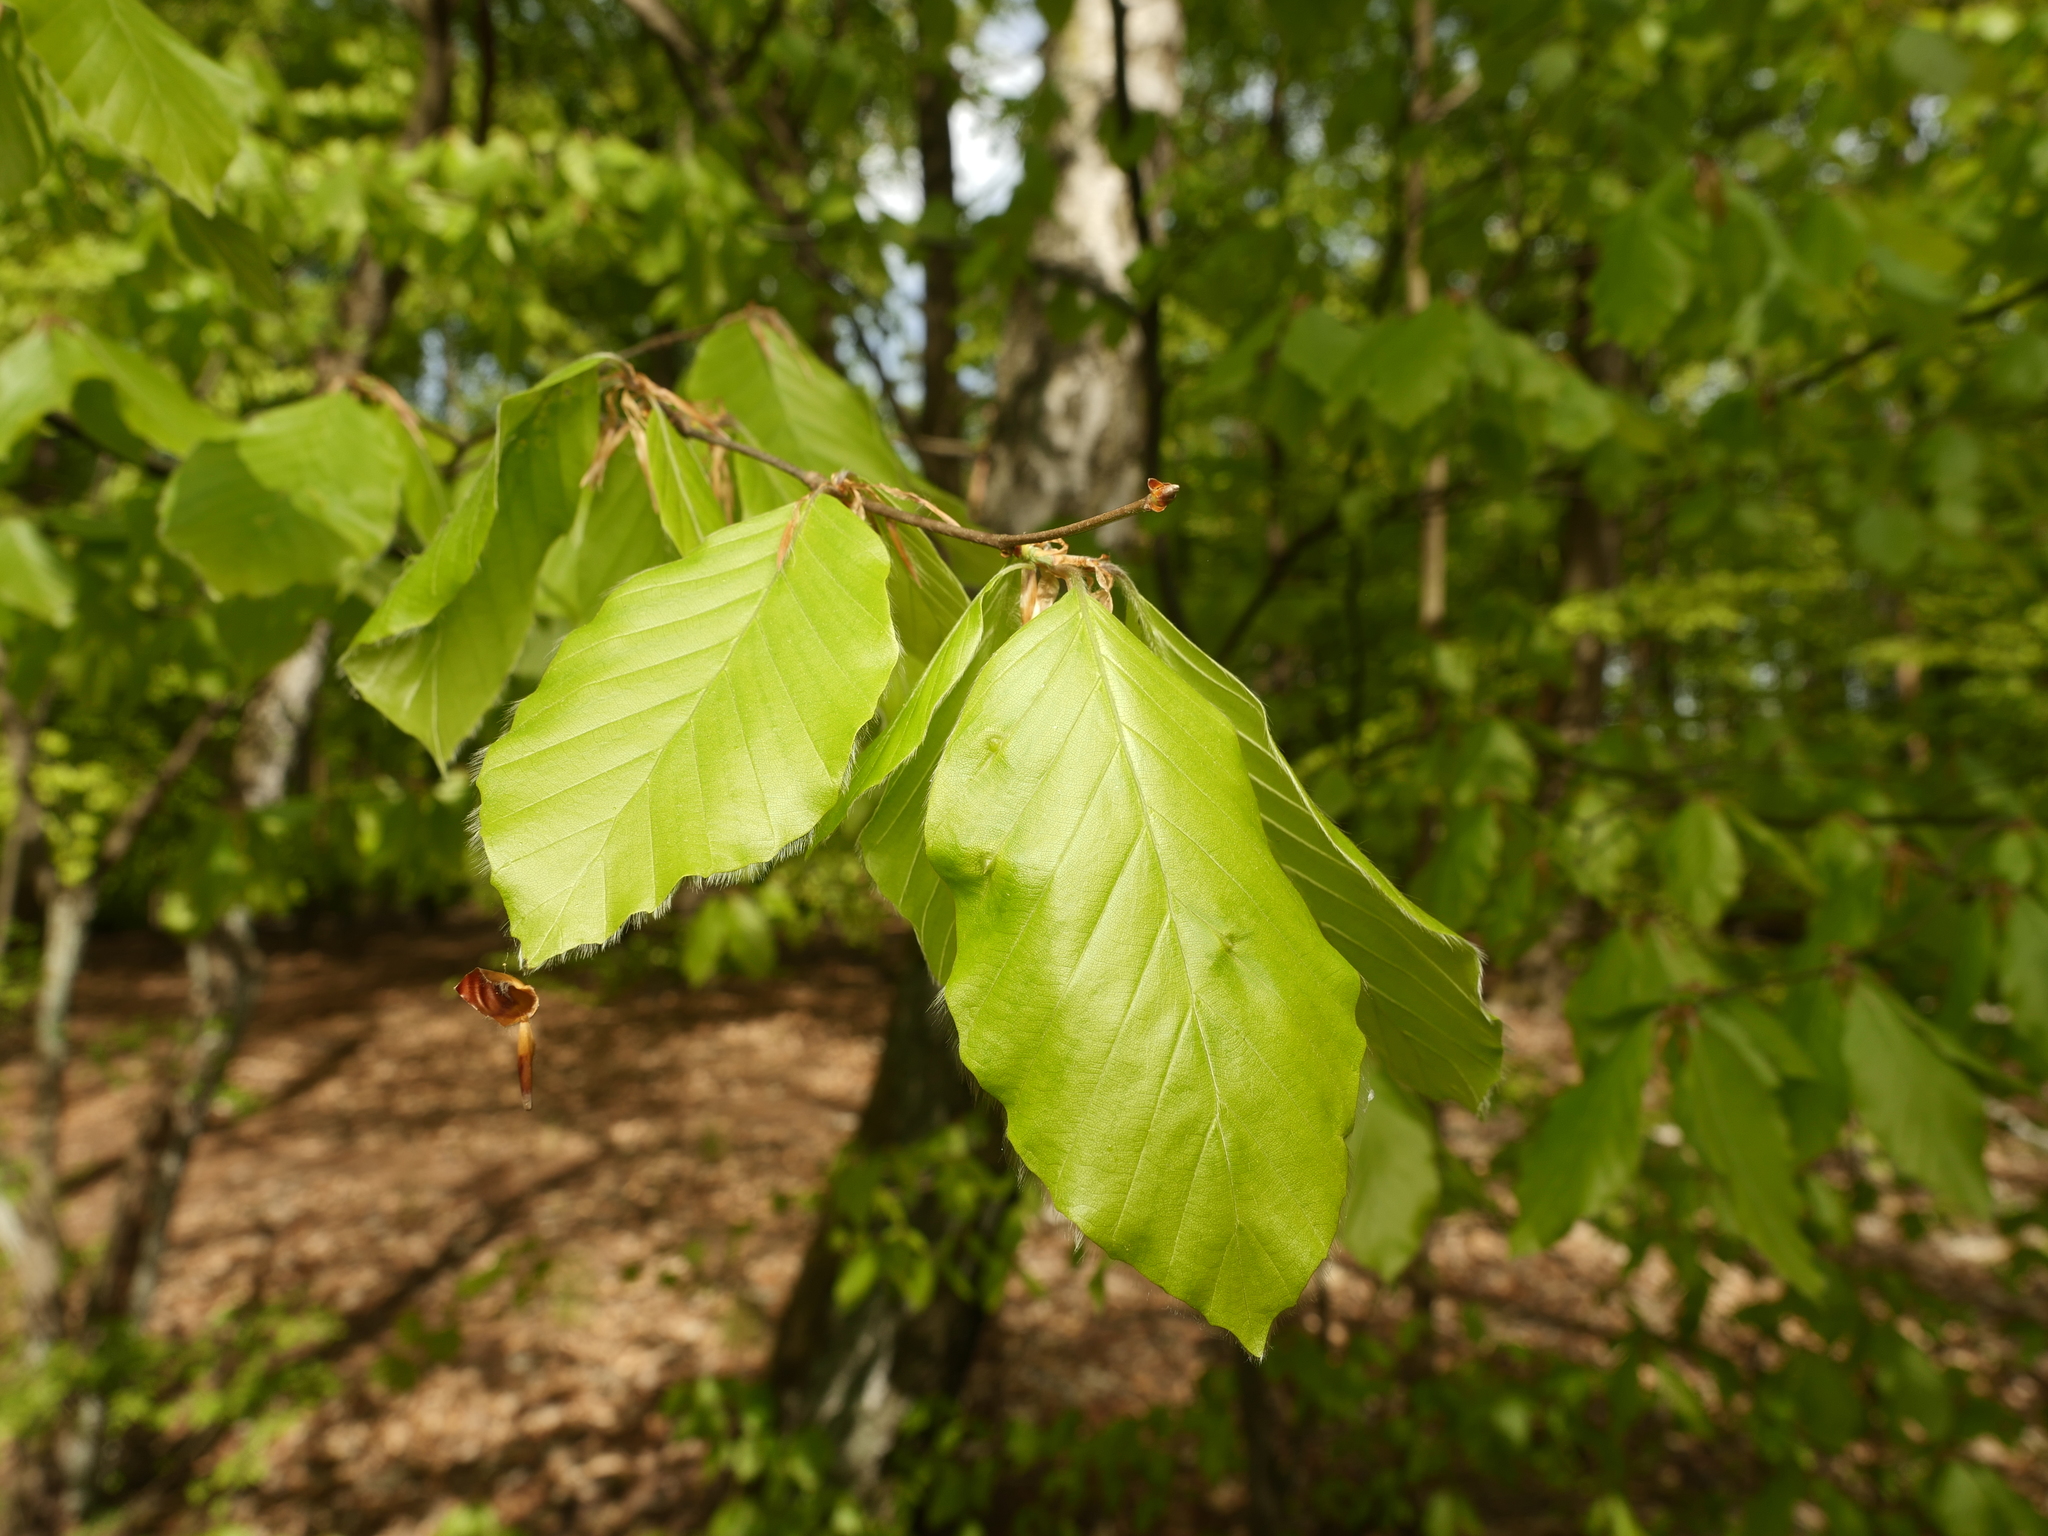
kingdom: Plantae
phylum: Tracheophyta
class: Magnoliopsida
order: Fagales
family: Fagaceae
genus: Fagus
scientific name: Fagus sylvatica
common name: Beech
